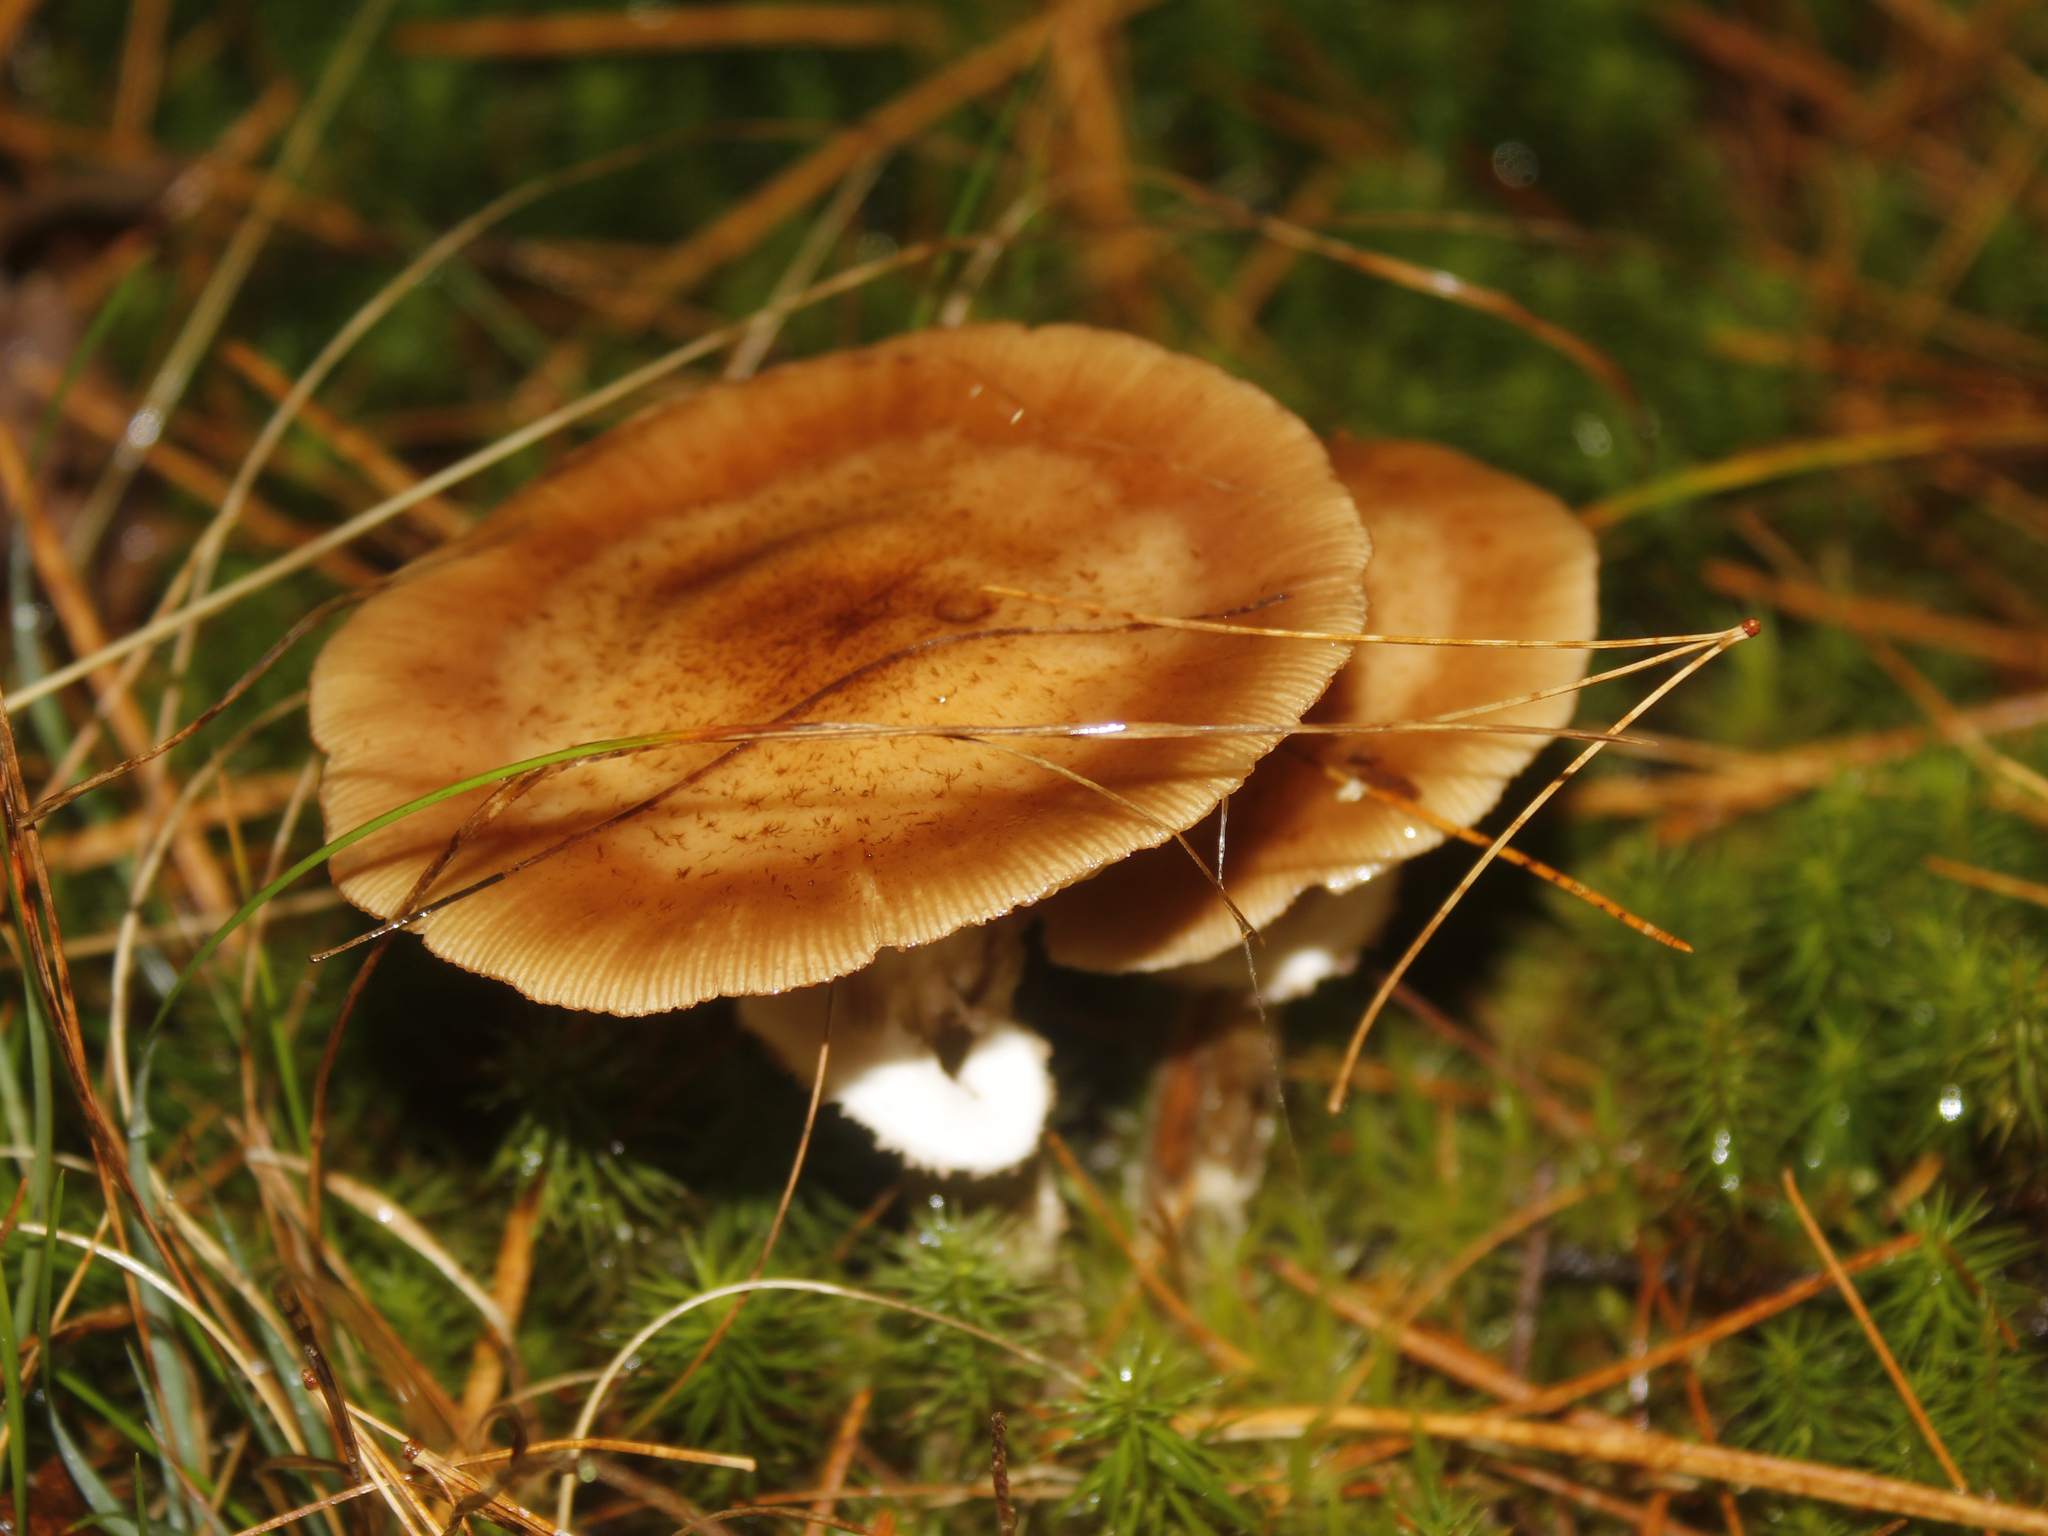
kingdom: Fungi
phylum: Basidiomycota
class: Agaricomycetes
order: Agaricales
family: Physalacriaceae
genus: Armillaria
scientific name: Armillaria ostoyae
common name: Dark honey fungus
